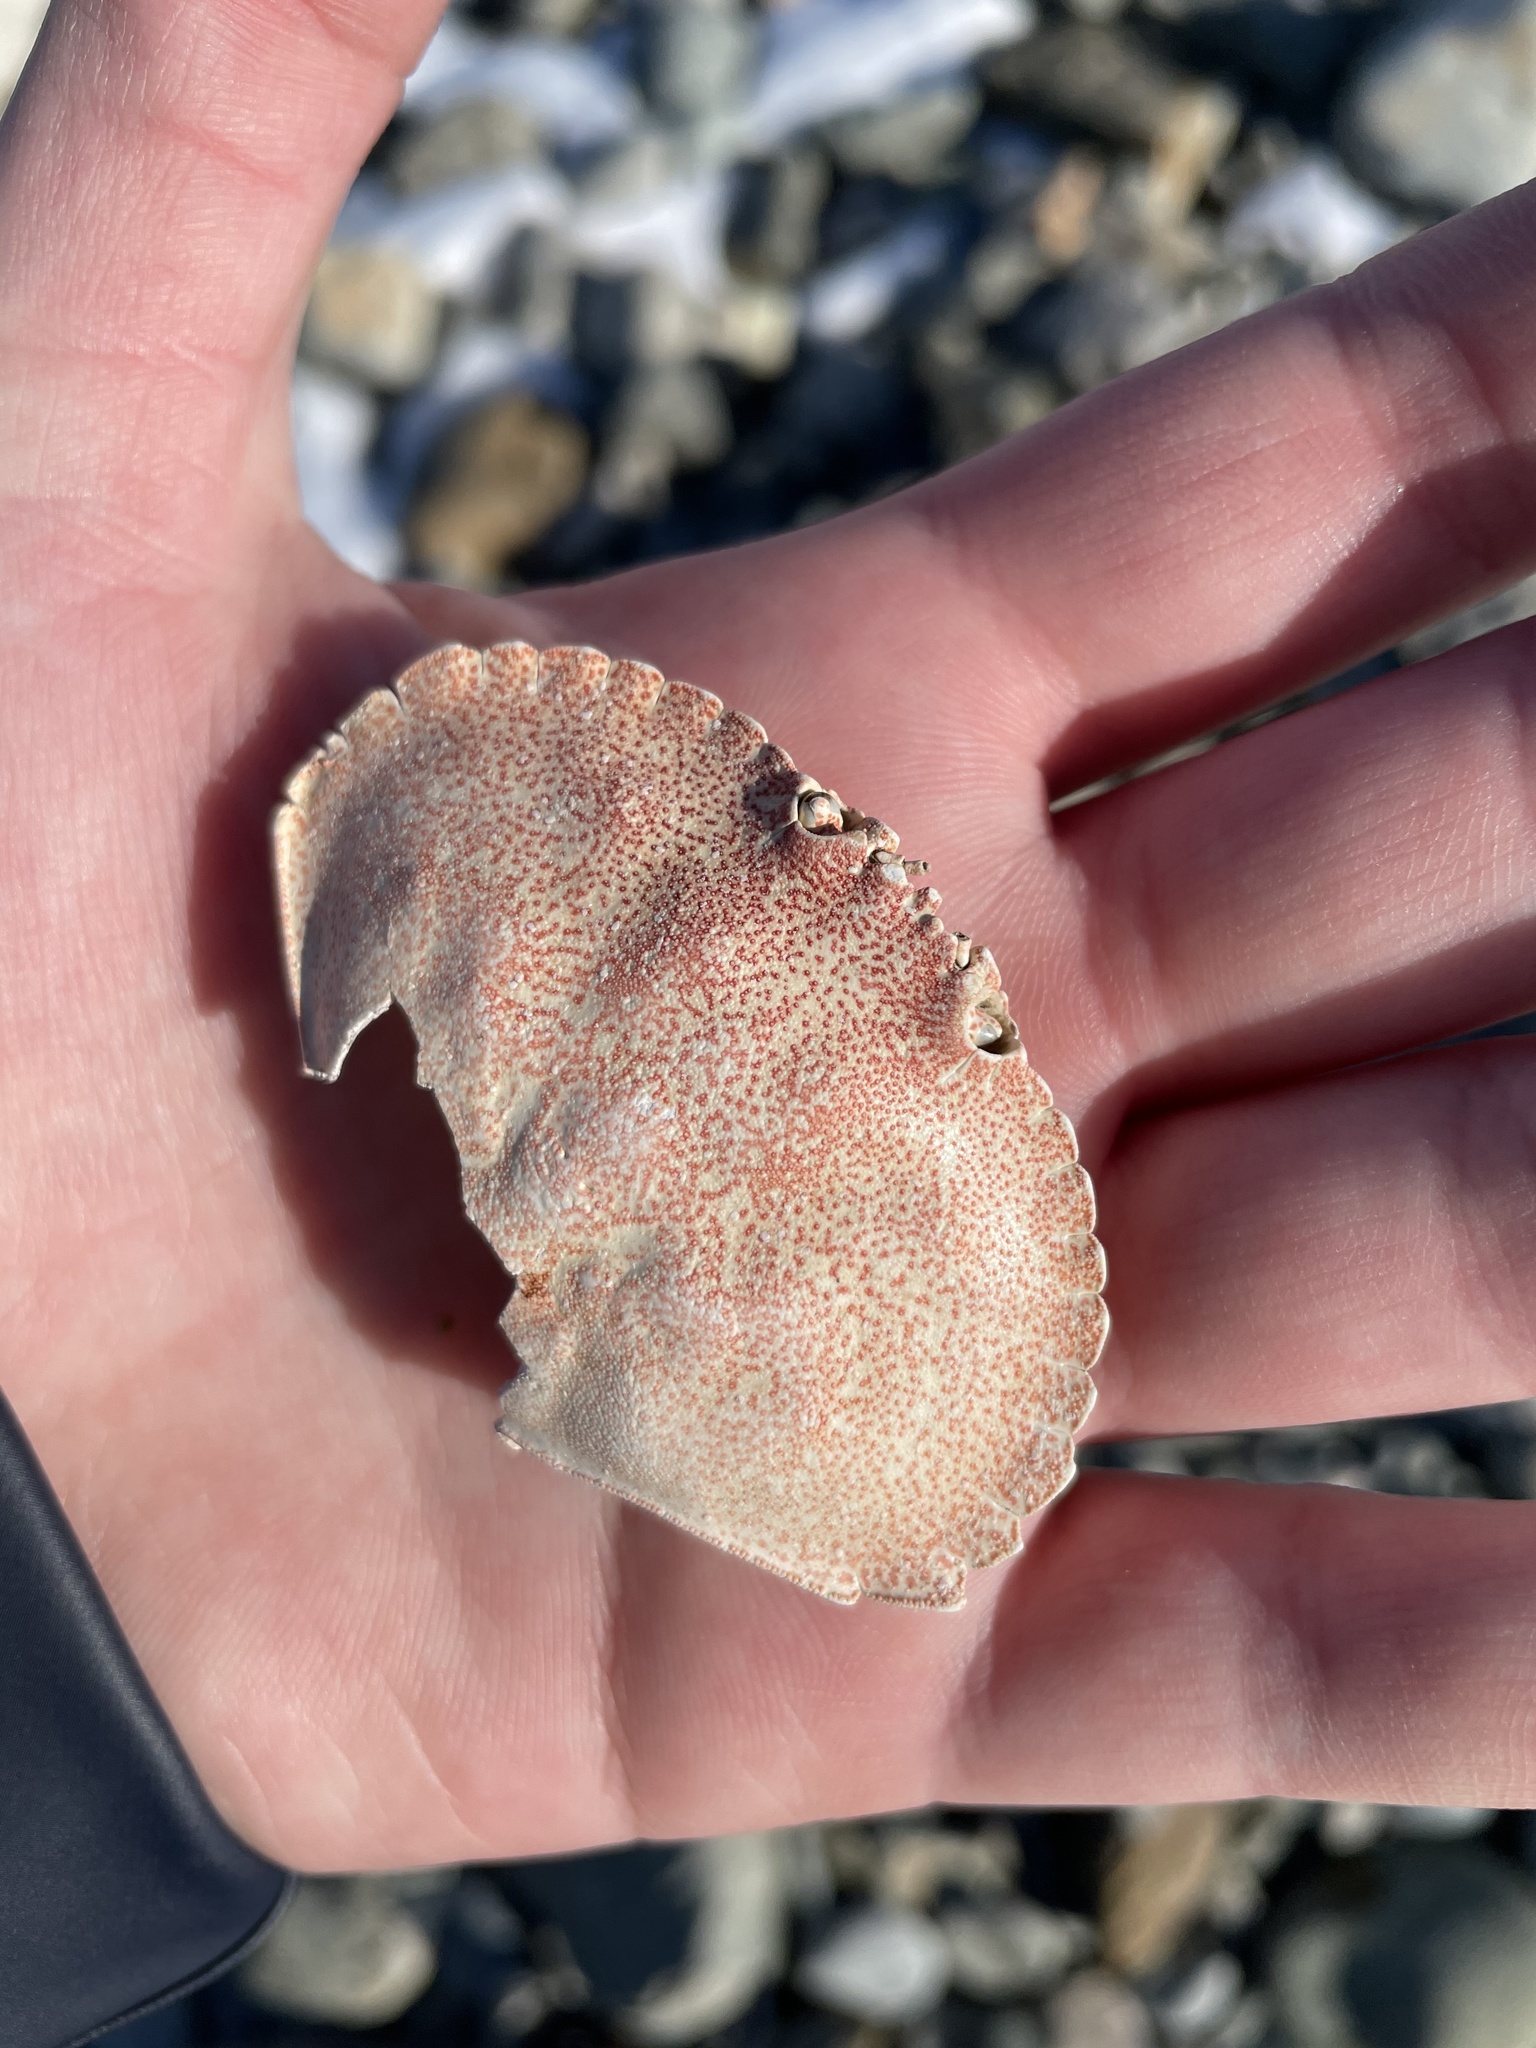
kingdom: Animalia
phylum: Arthropoda
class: Malacostraca
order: Decapoda
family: Cancridae
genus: Cancer
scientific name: Cancer irroratus
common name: Atlantic rock crab
